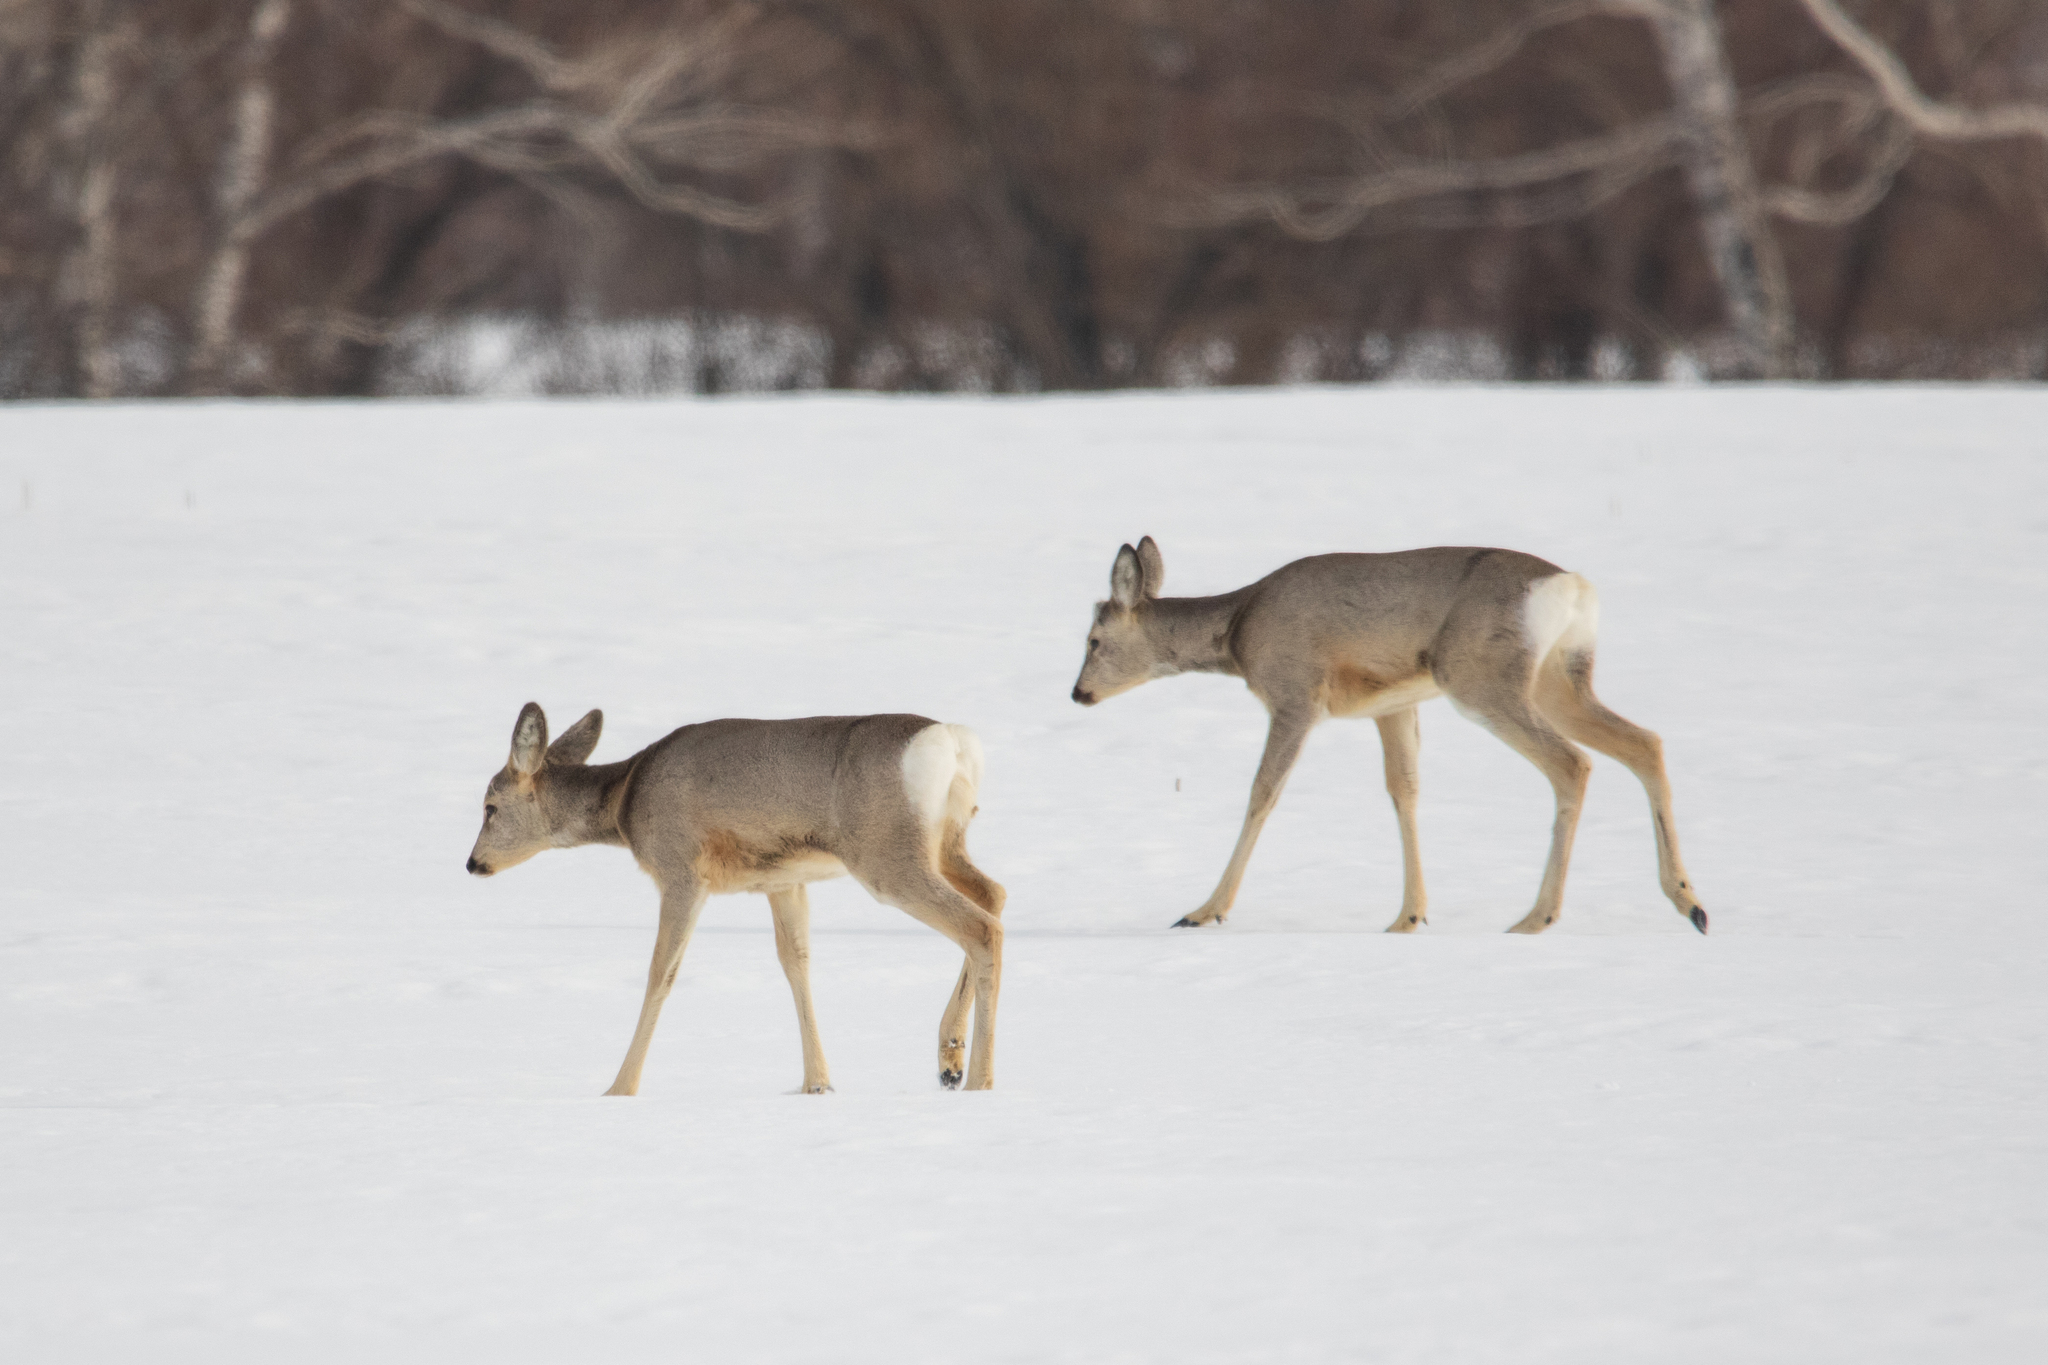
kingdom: Animalia
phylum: Chordata
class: Mammalia
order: Artiodactyla
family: Cervidae
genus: Capreolus
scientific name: Capreolus pygargus
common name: Siberian roe
